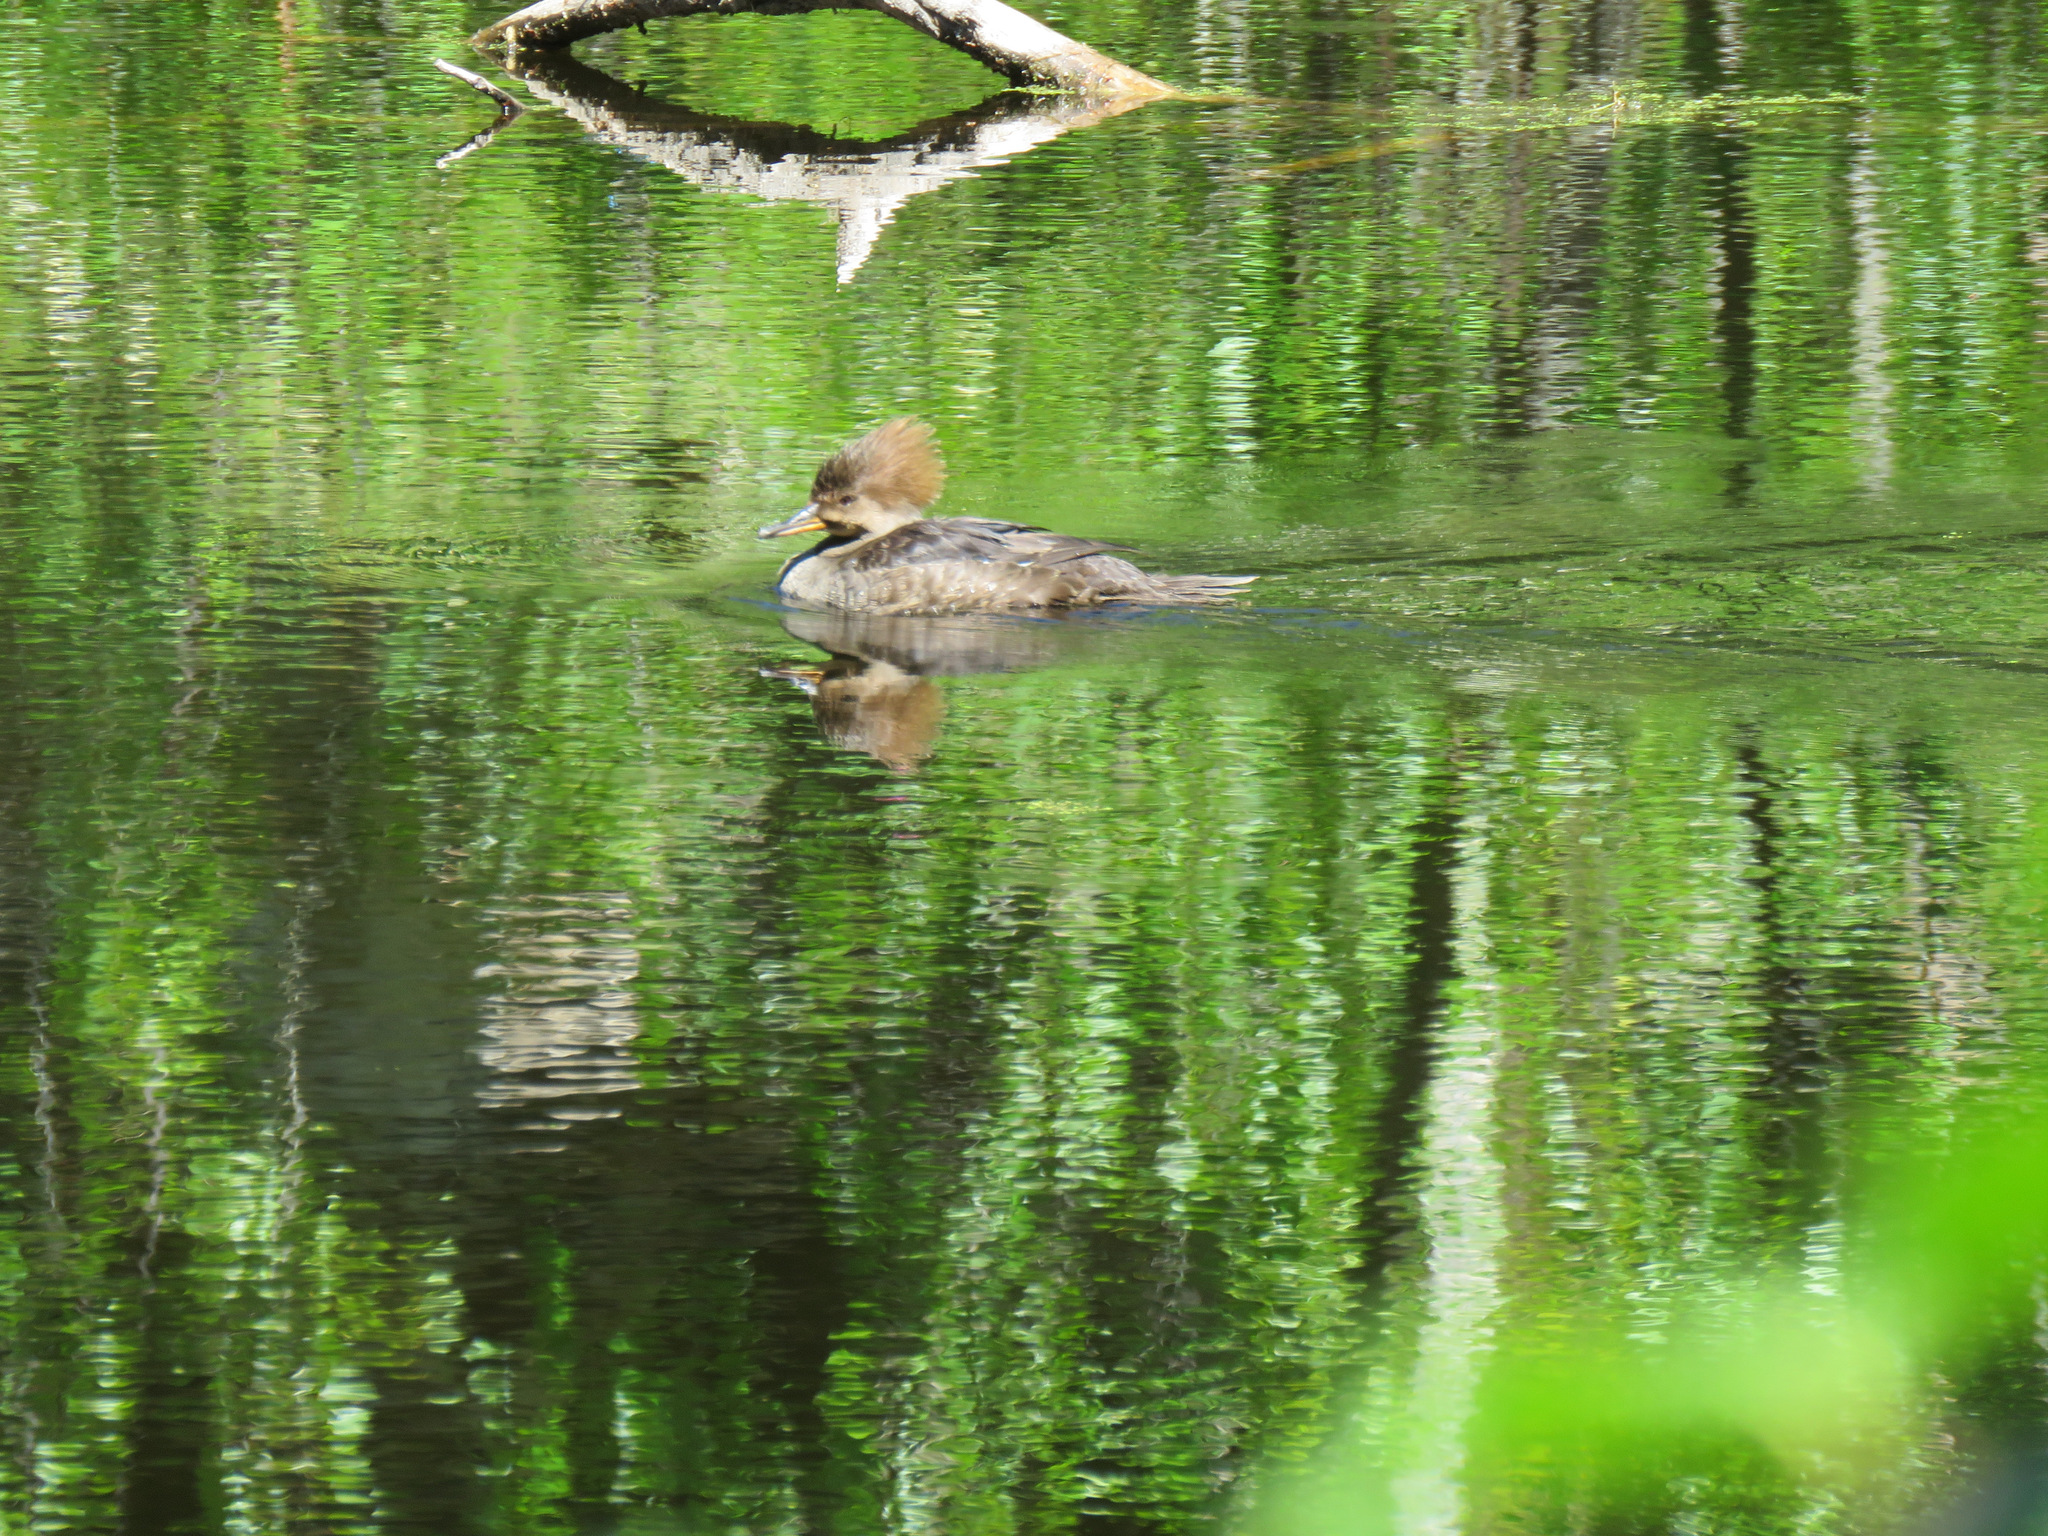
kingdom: Animalia
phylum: Chordata
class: Aves
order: Anseriformes
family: Anatidae
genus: Lophodytes
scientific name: Lophodytes cucullatus
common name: Hooded merganser
